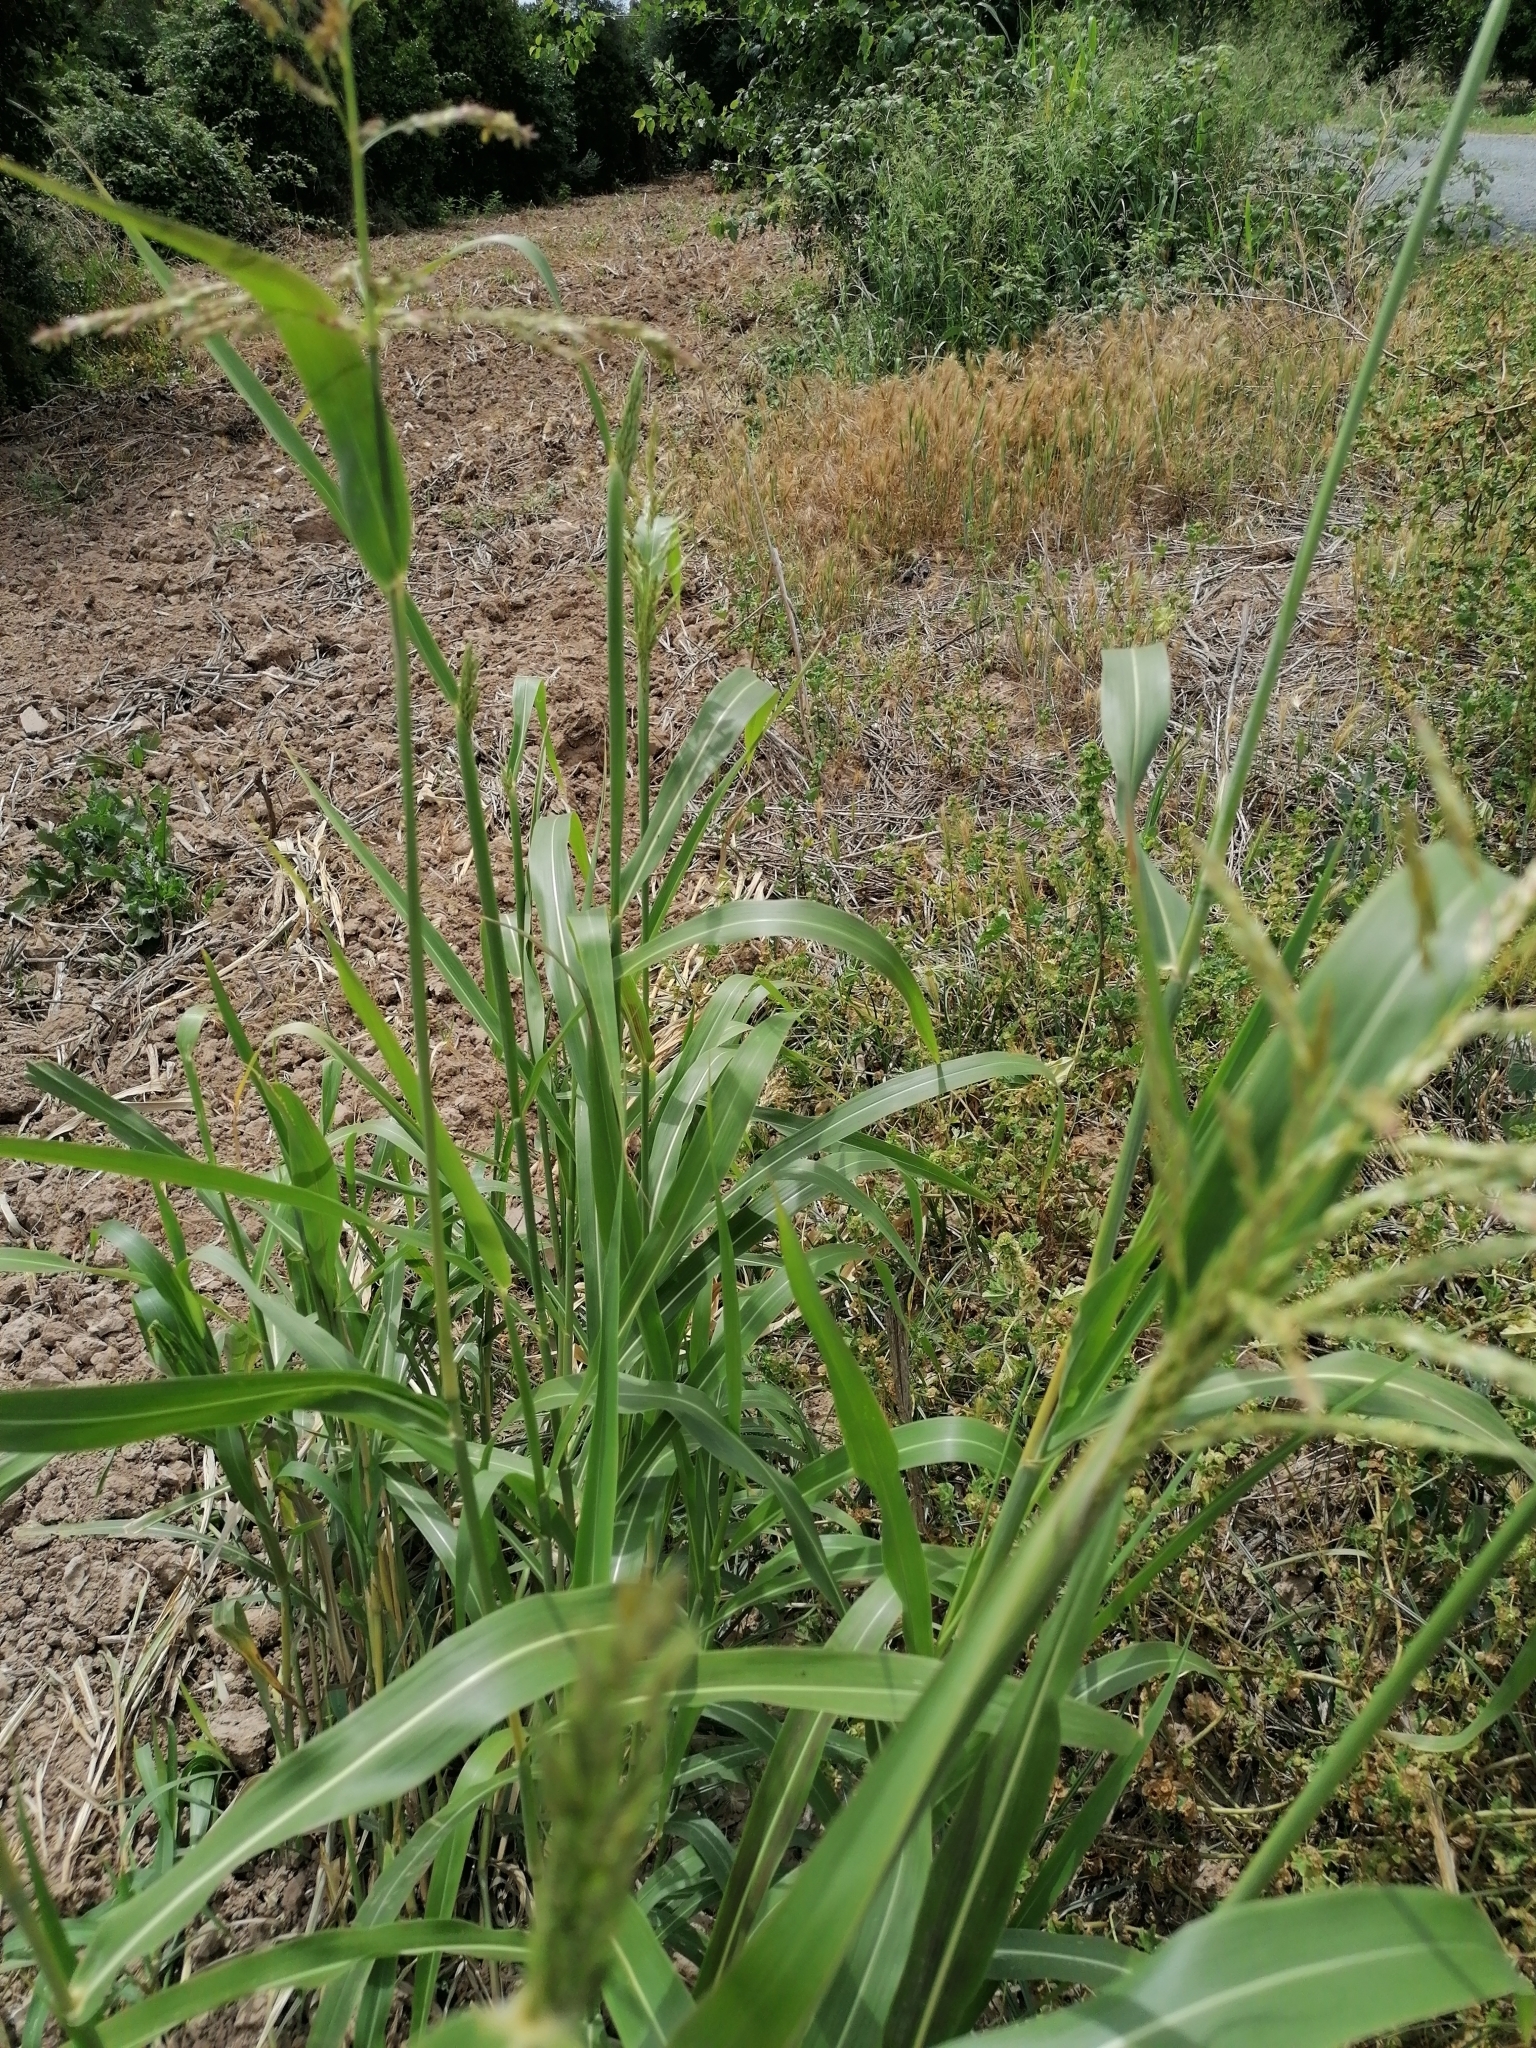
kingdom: Plantae
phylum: Tracheophyta
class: Liliopsida
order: Poales
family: Poaceae
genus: Sorghum
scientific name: Sorghum halepense
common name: Johnson-grass
